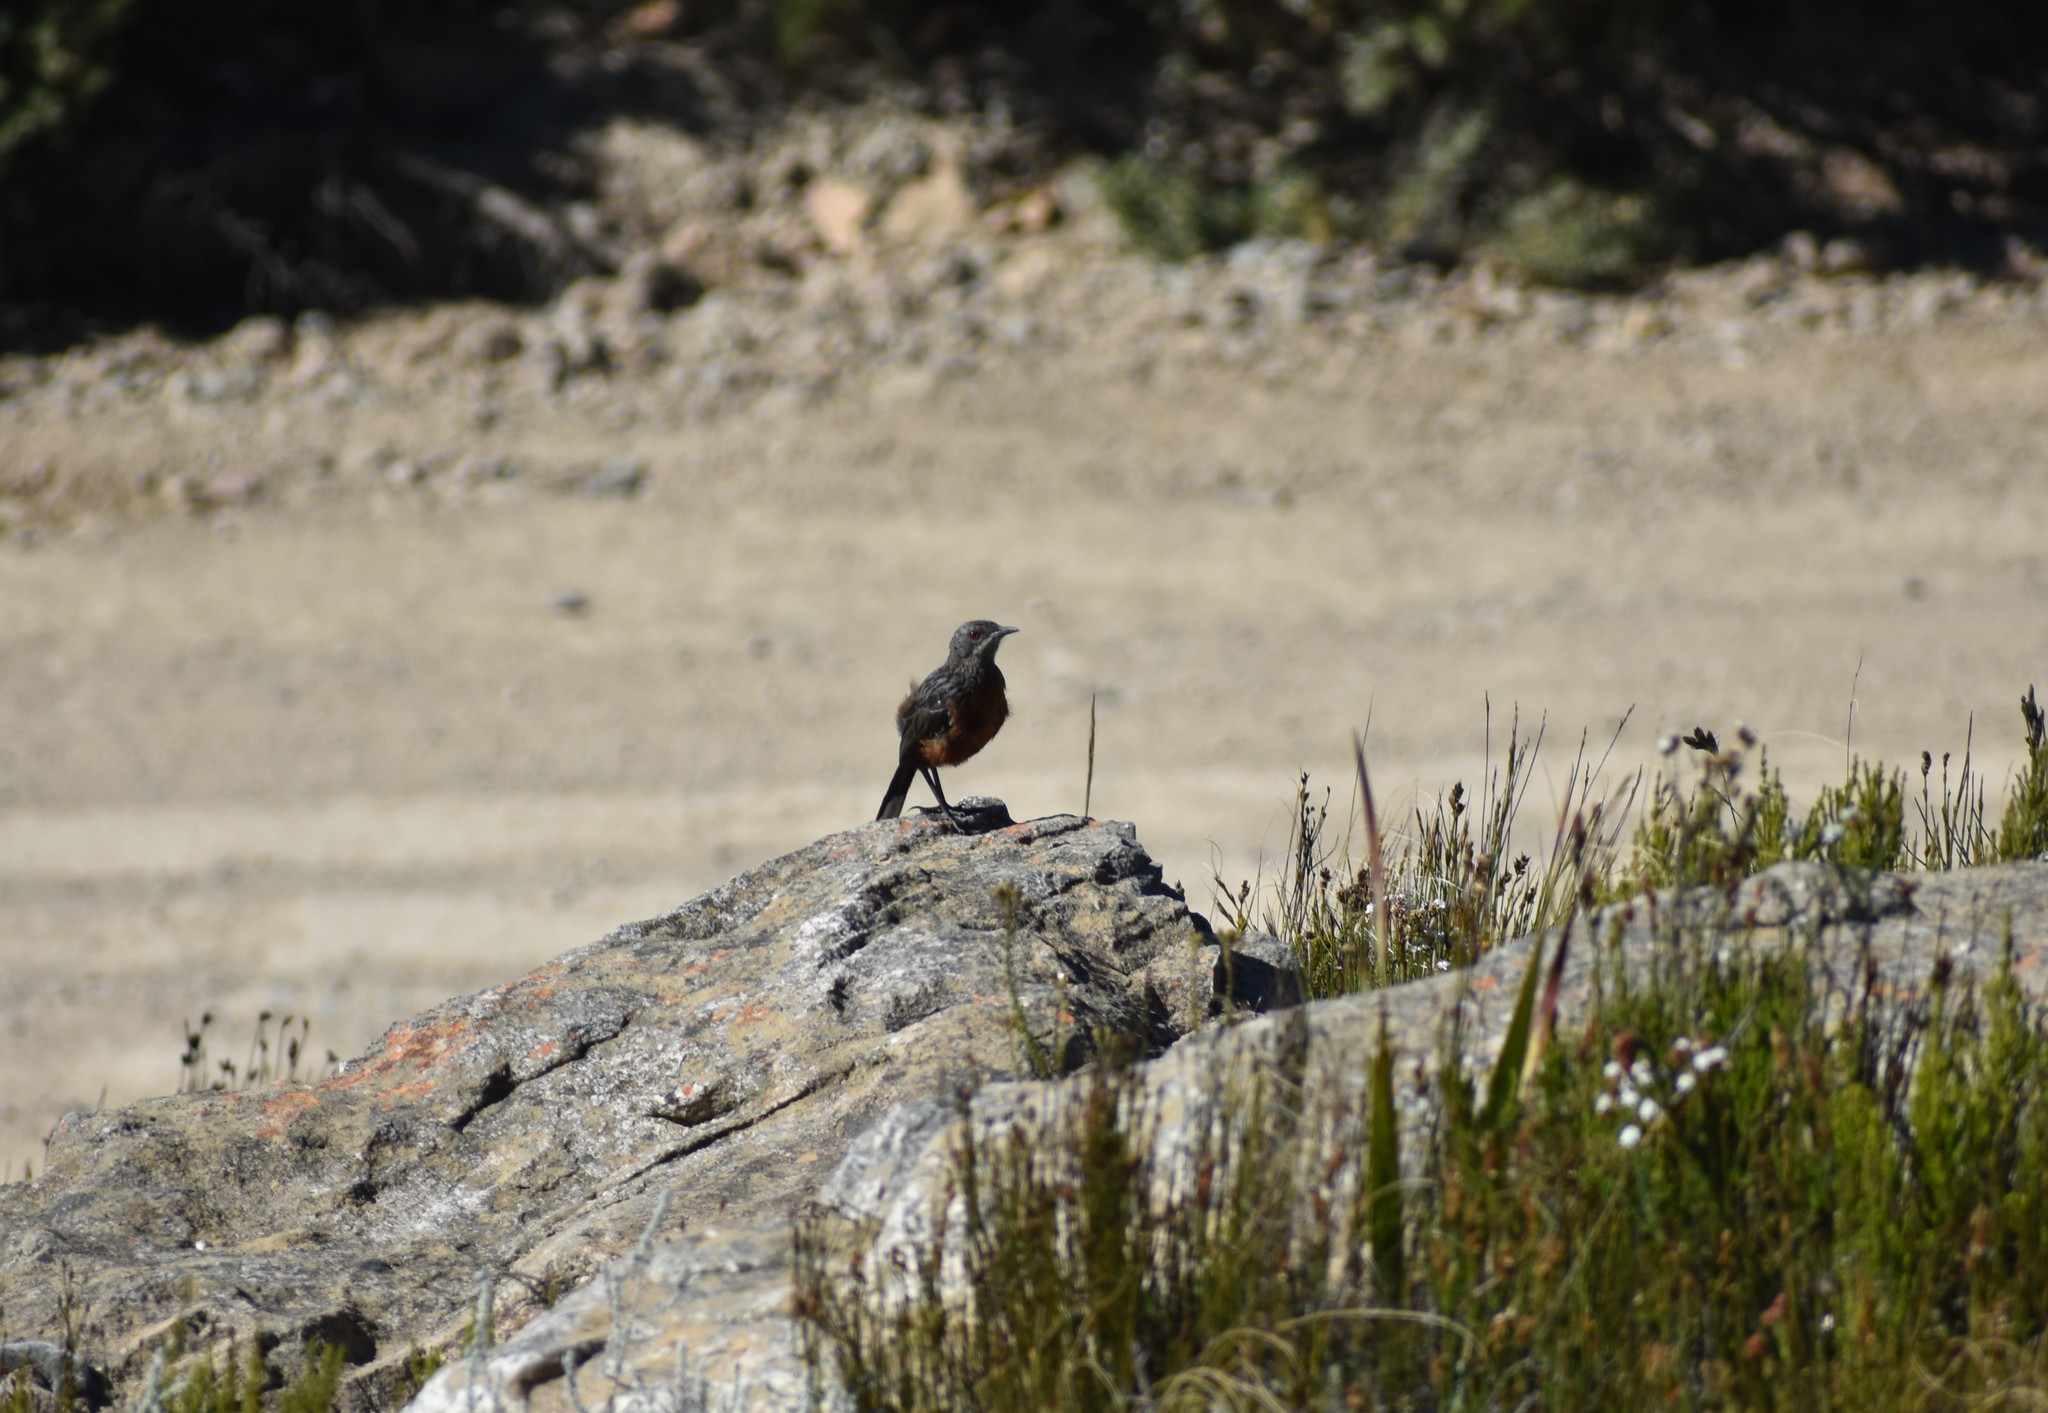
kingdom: Animalia
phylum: Chordata
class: Aves
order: Passeriformes
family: Chaetopidae
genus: Chaetops
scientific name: Chaetops frenatus
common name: Cape rockjumper
